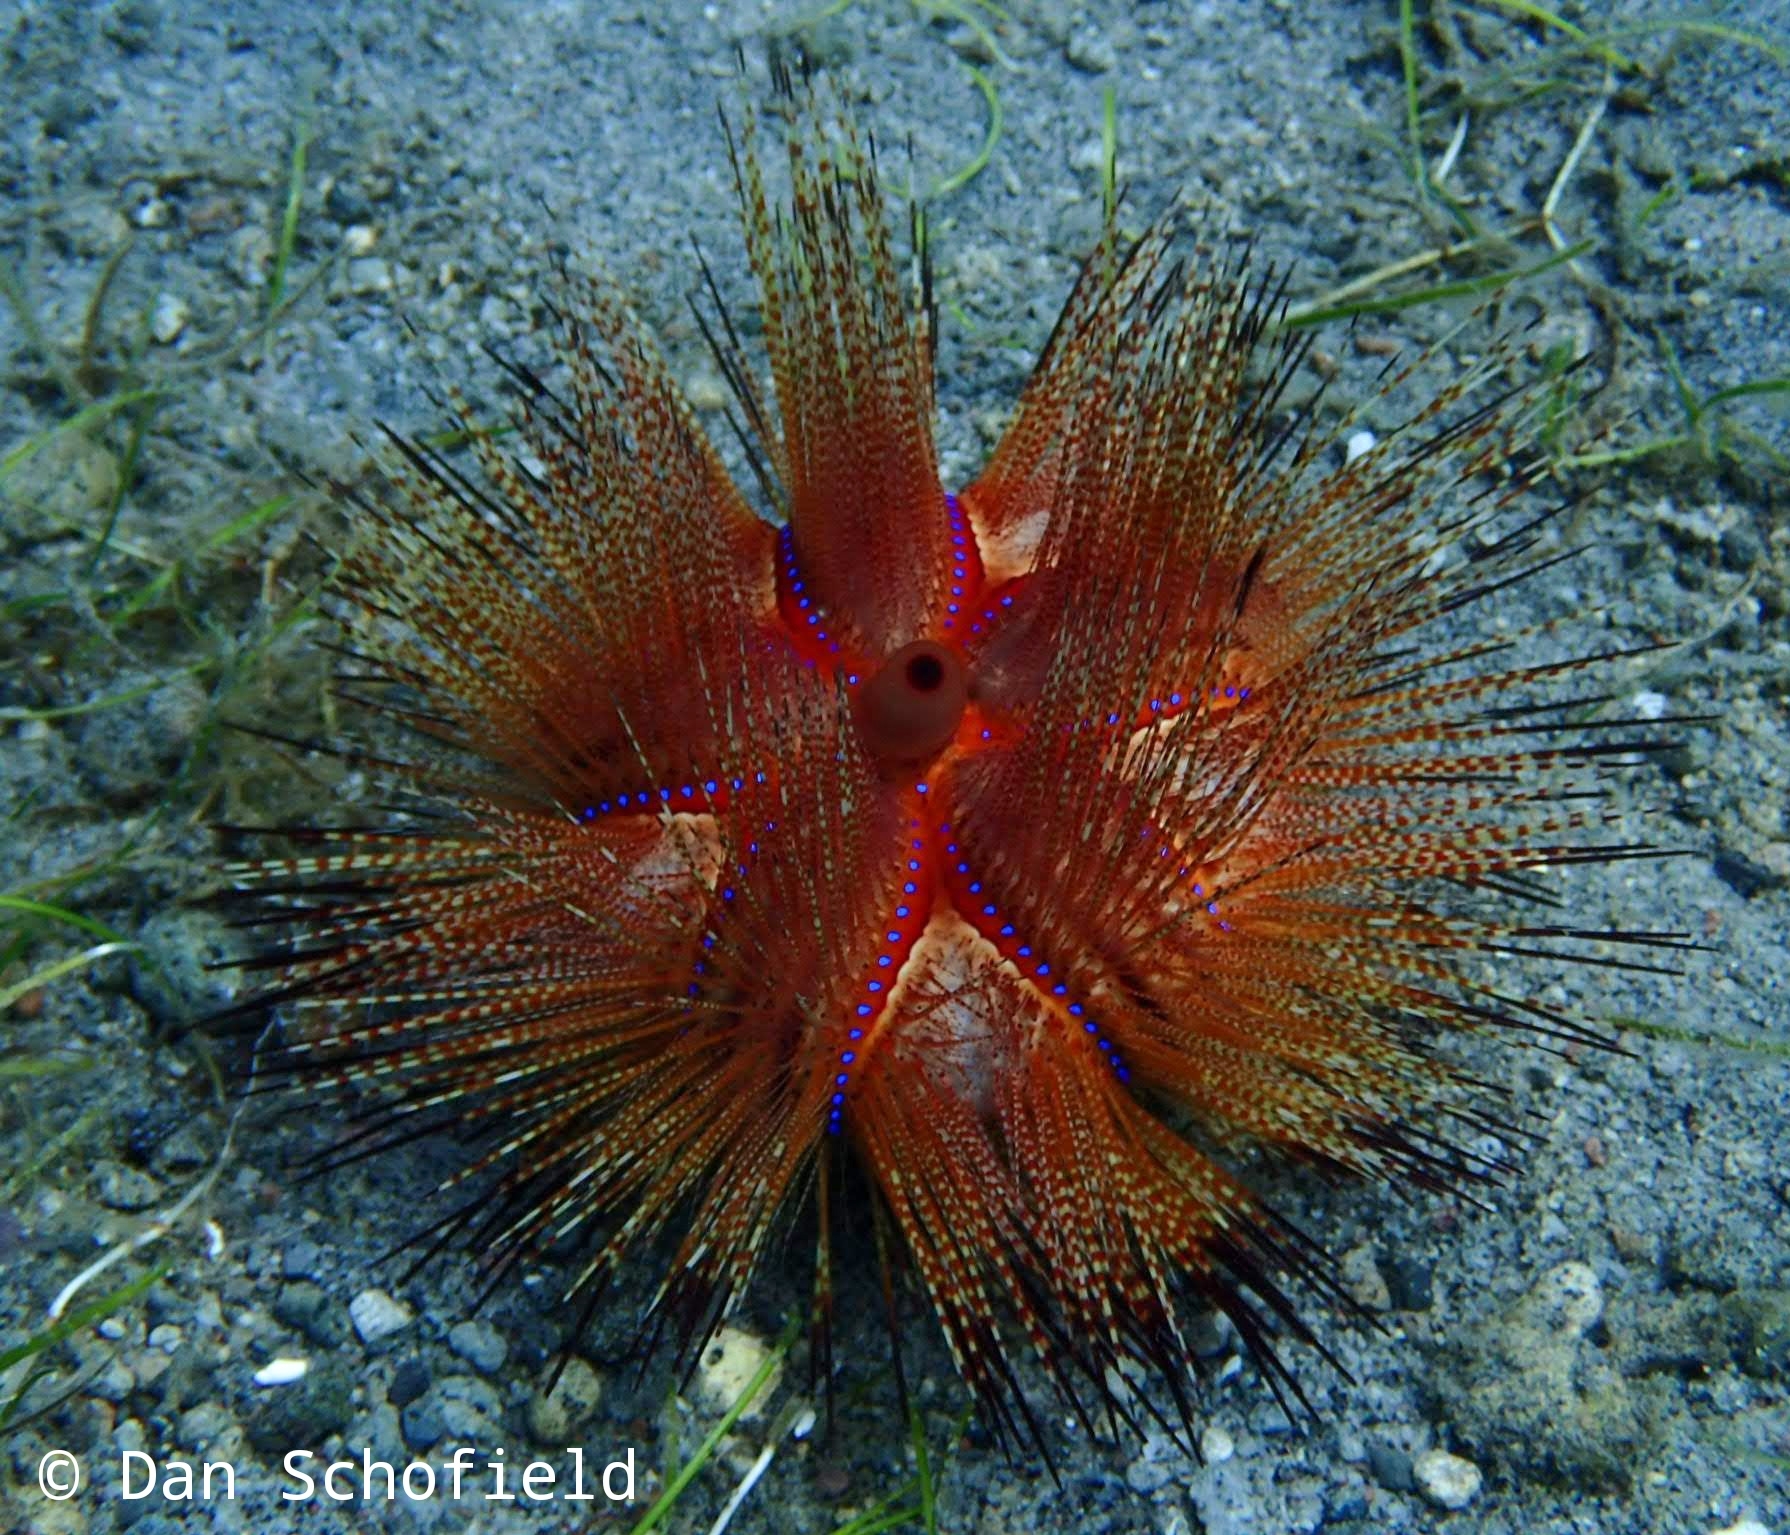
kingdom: Animalia
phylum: Echinodermata
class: Echinoidea
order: Diadematoida
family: Diadematidae
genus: Astropyga
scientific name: Astropyga radiata
